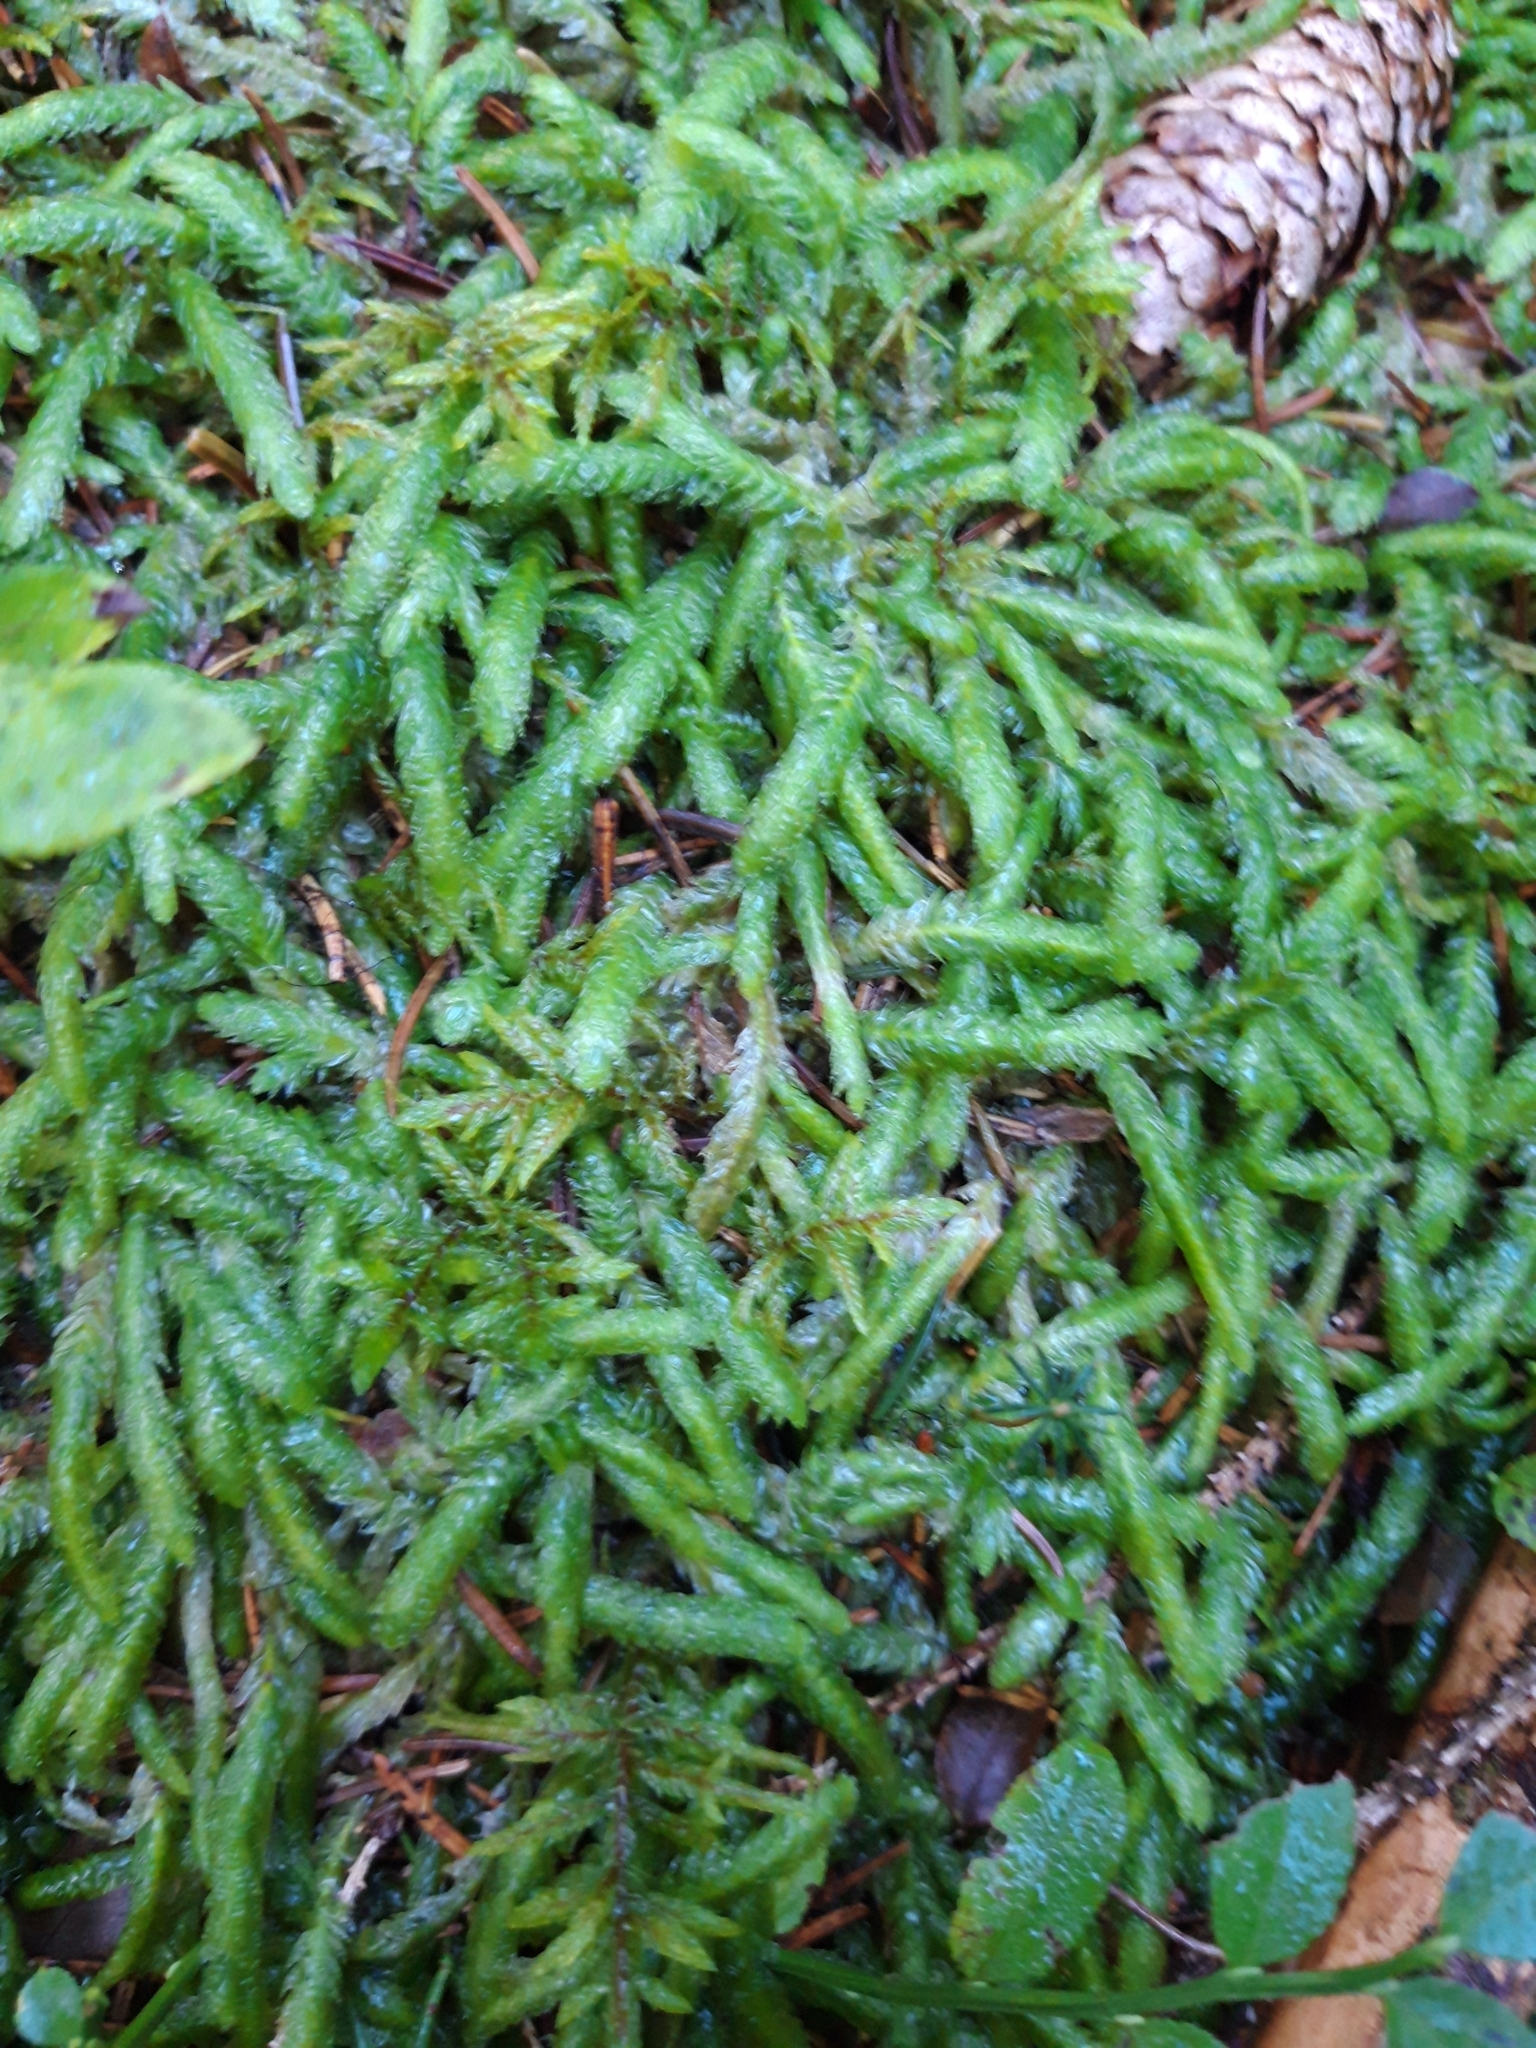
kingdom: Plantae
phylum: Bryophyta
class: Bryopsida
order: Hypnales
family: Plagiotheciaceae
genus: Plagiothecium
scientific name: Plagiothecium undulatum
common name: Waved silk-moss
